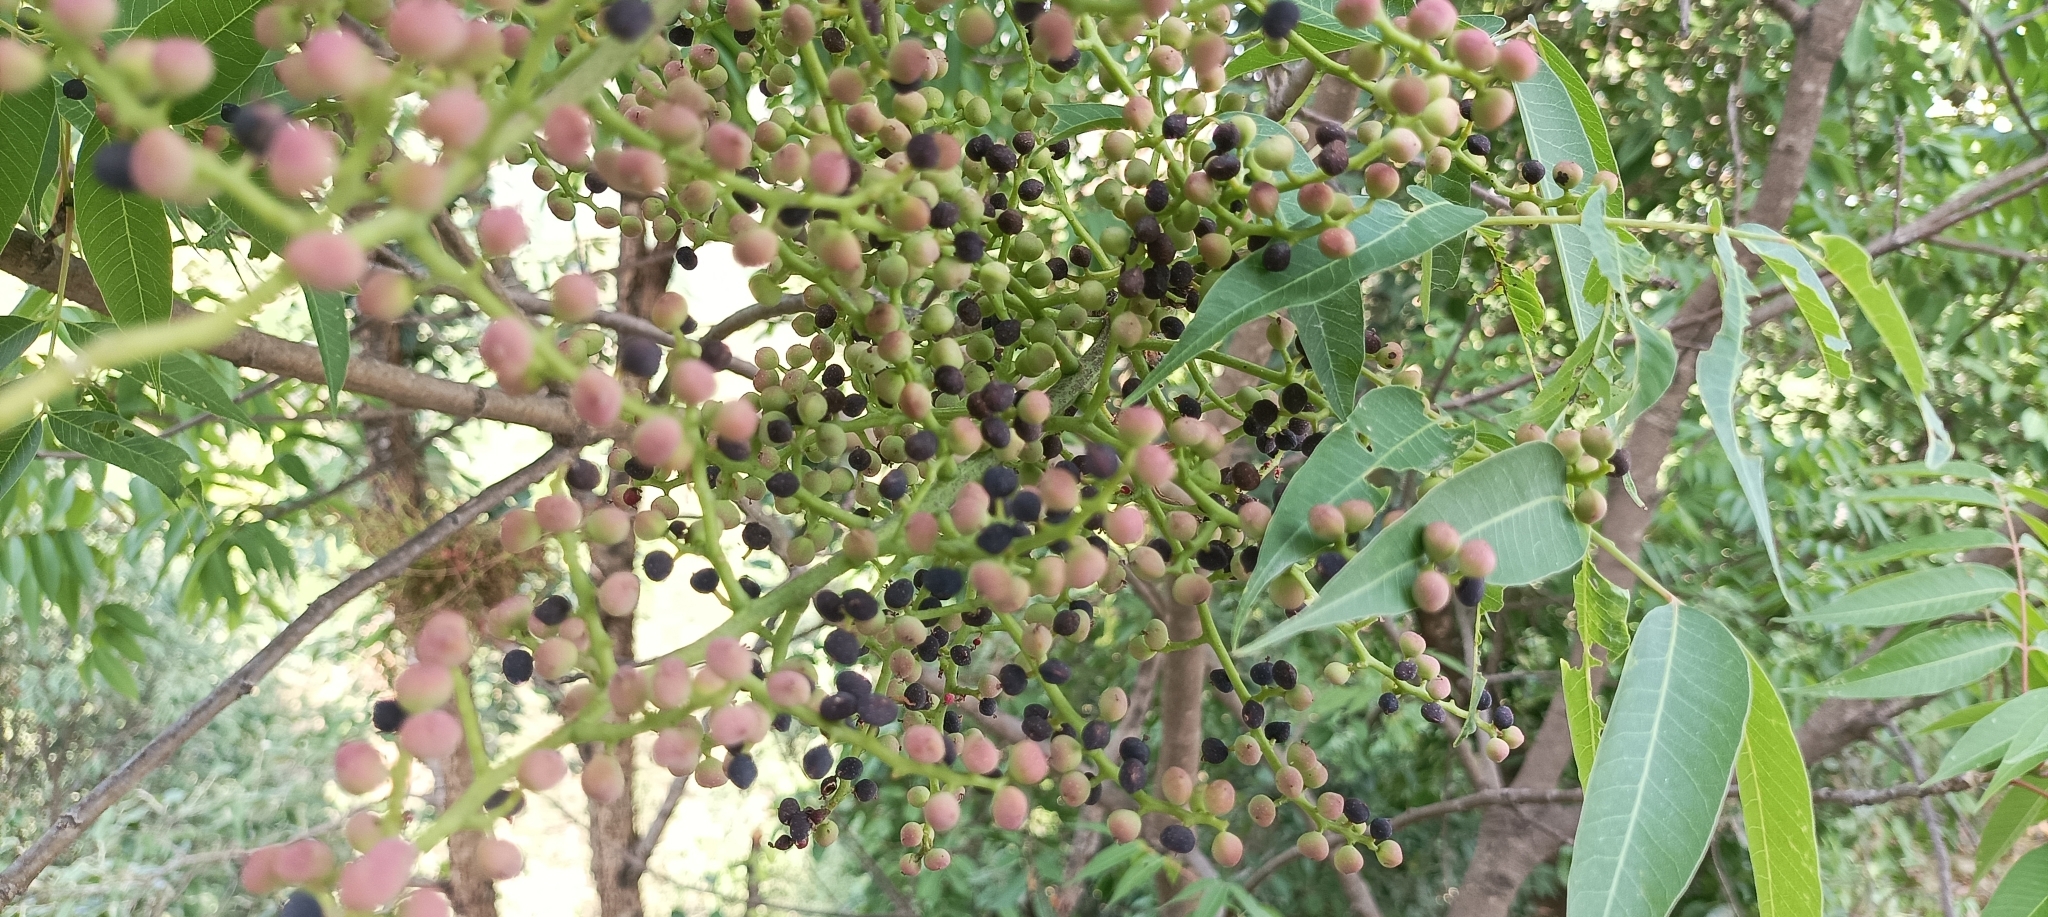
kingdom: Plantae
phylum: Tracheophyta
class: Magnoliopsida
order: Sapindales
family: Anacardiaceae
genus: Pistacia
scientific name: Pistacia chinensis
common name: Chinese pistache
